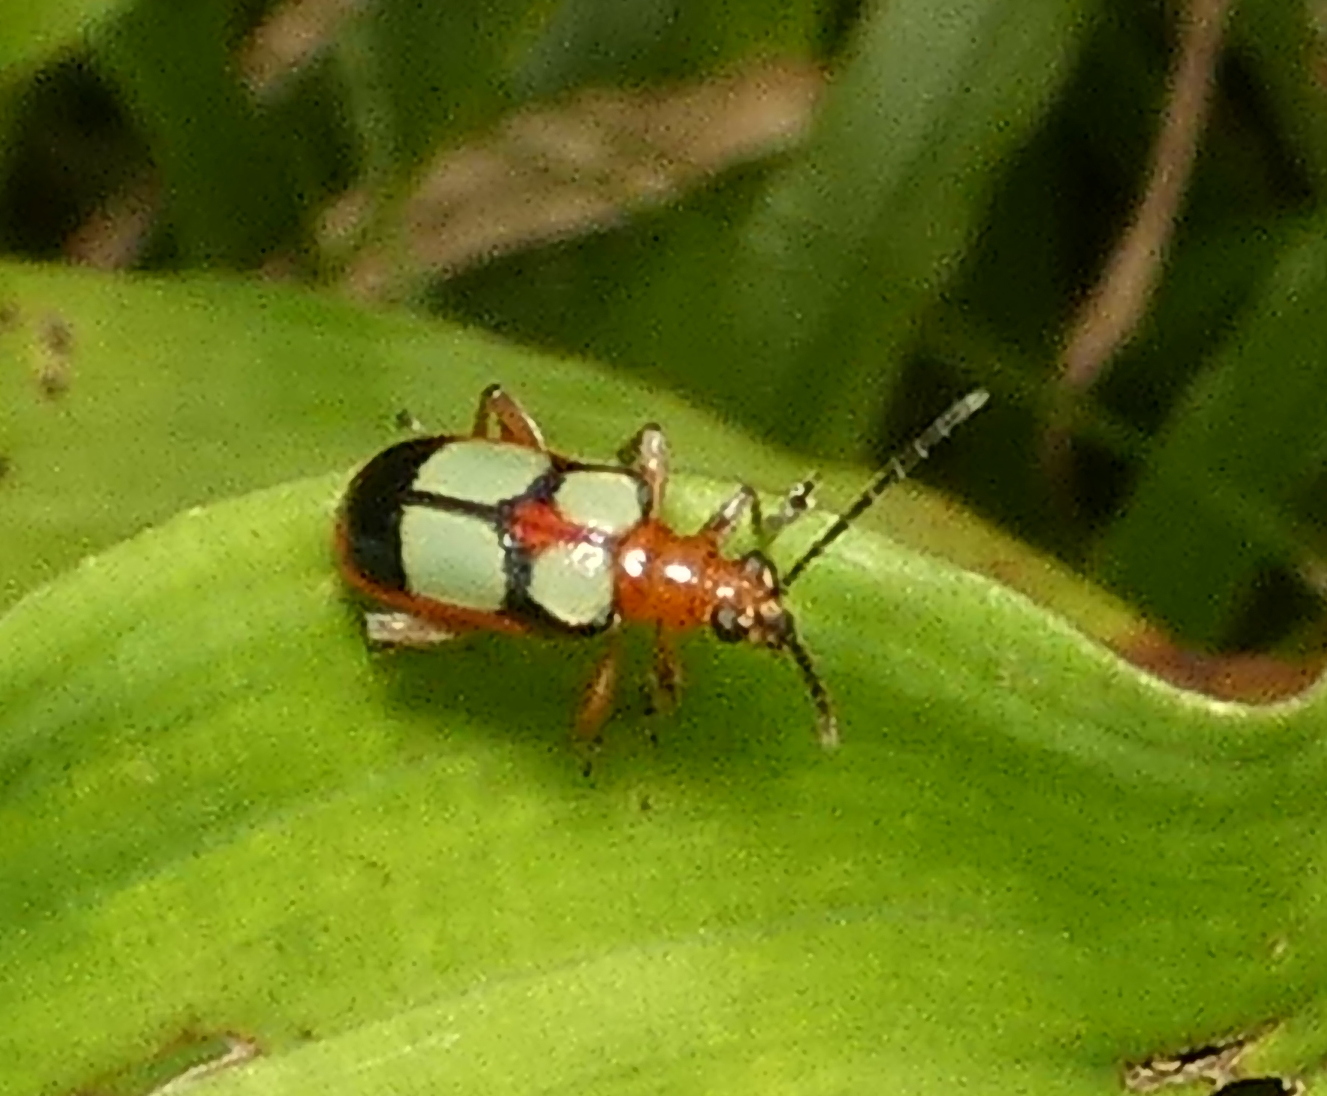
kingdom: Animalia
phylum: Arthropoda
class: Insecta
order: Coleoptera
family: Chrysomelidae
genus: Neolema
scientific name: Neolema
